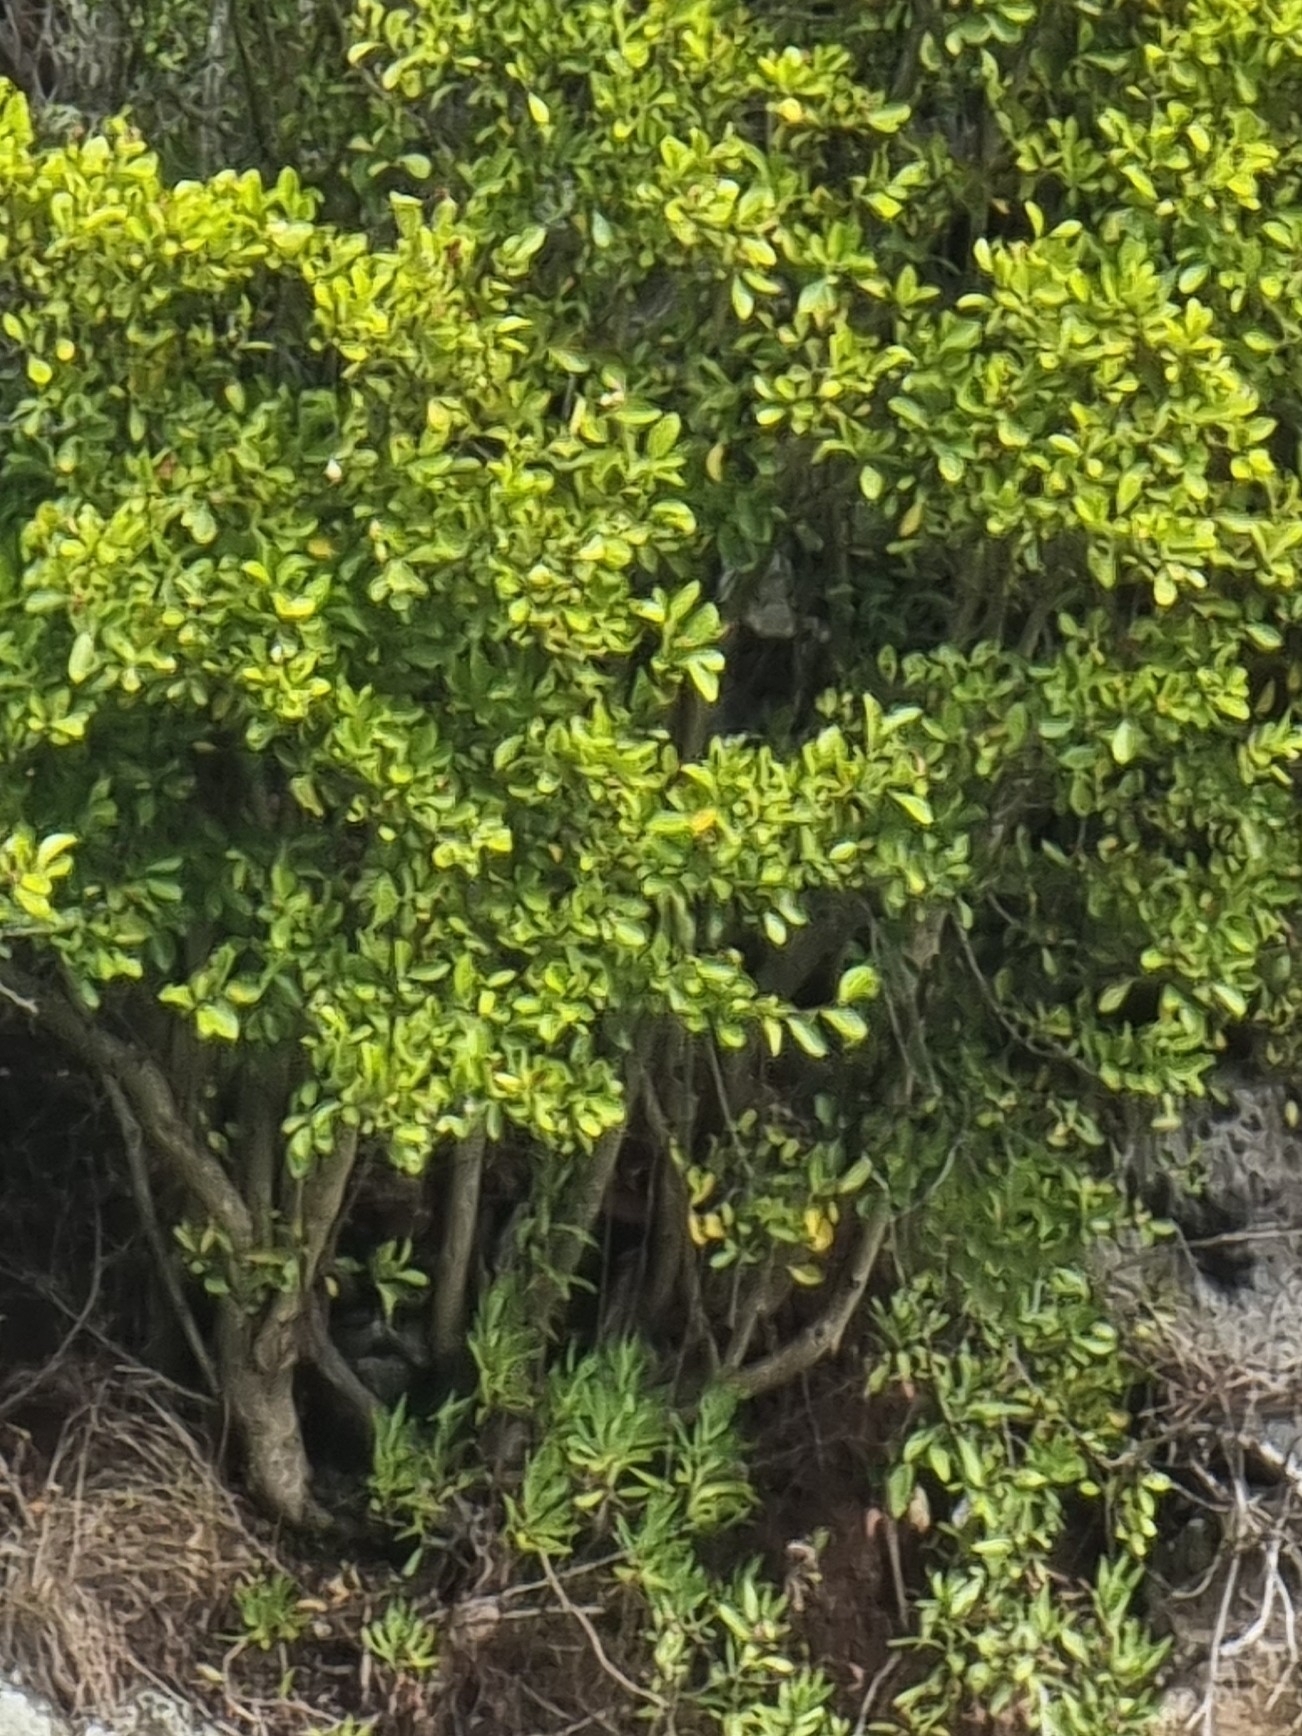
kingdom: Plantae
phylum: Tracheophyta
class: Magnoliopsida
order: Celastrales
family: Celastraceae
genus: Gymnosporia
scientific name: Gymnosporia dryandri
